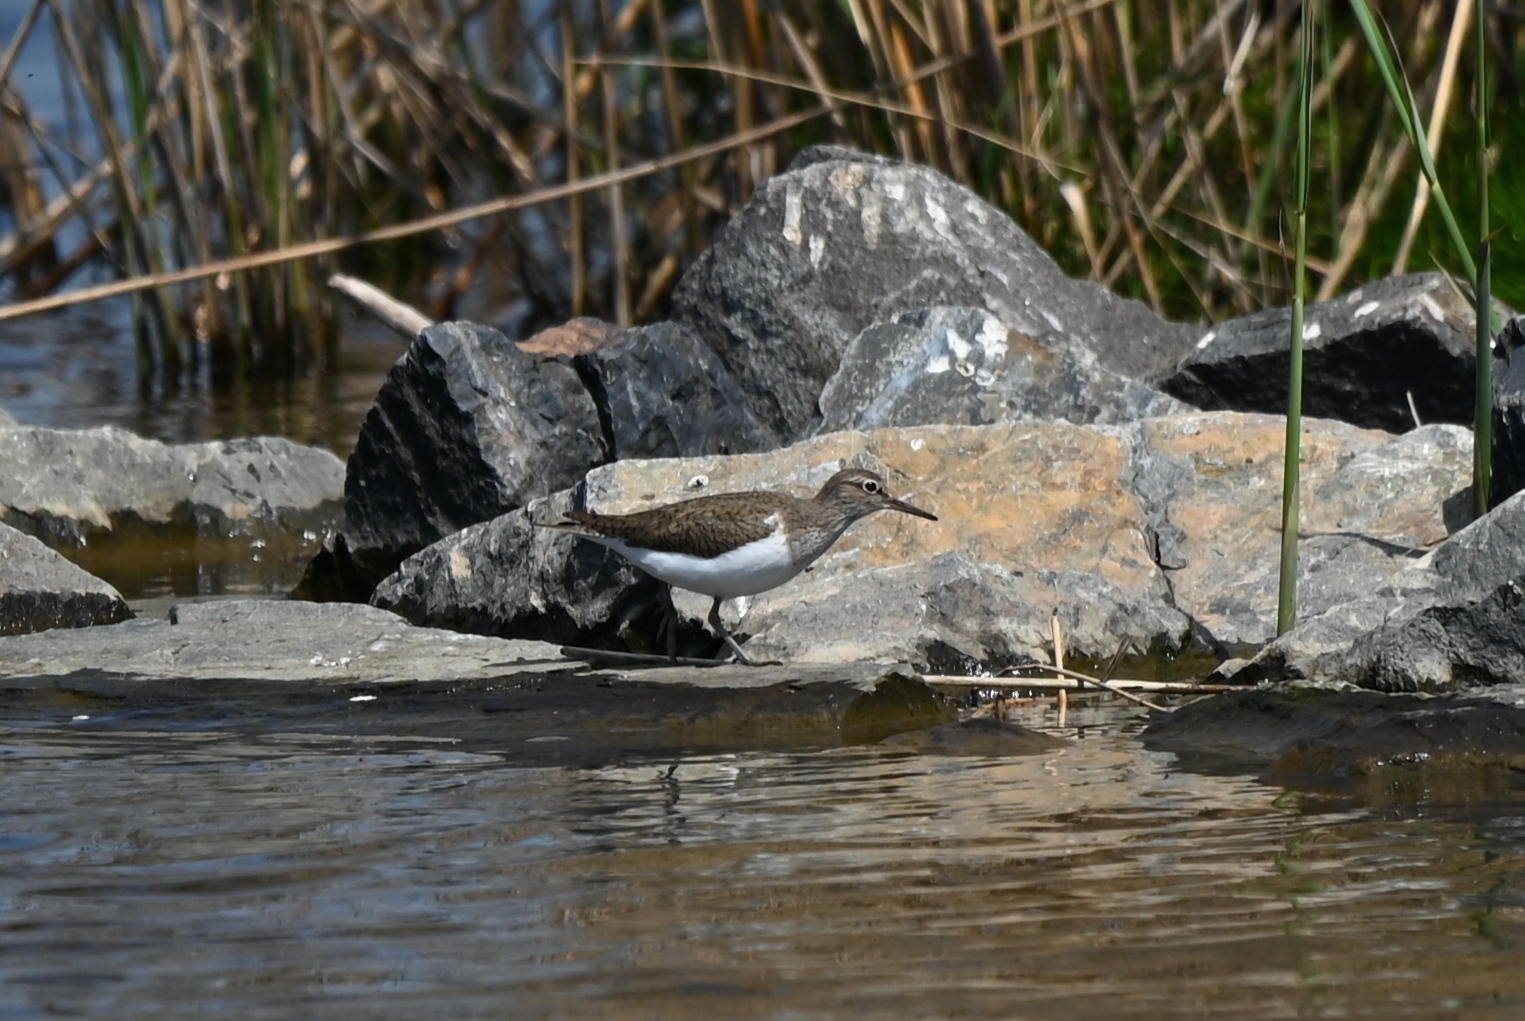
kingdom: Animalia
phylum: Chordata
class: Aves
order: Charadriiformes
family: Scolopacidae
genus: Actitis
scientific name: Actitis hypoleucos
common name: Common sandpiper
